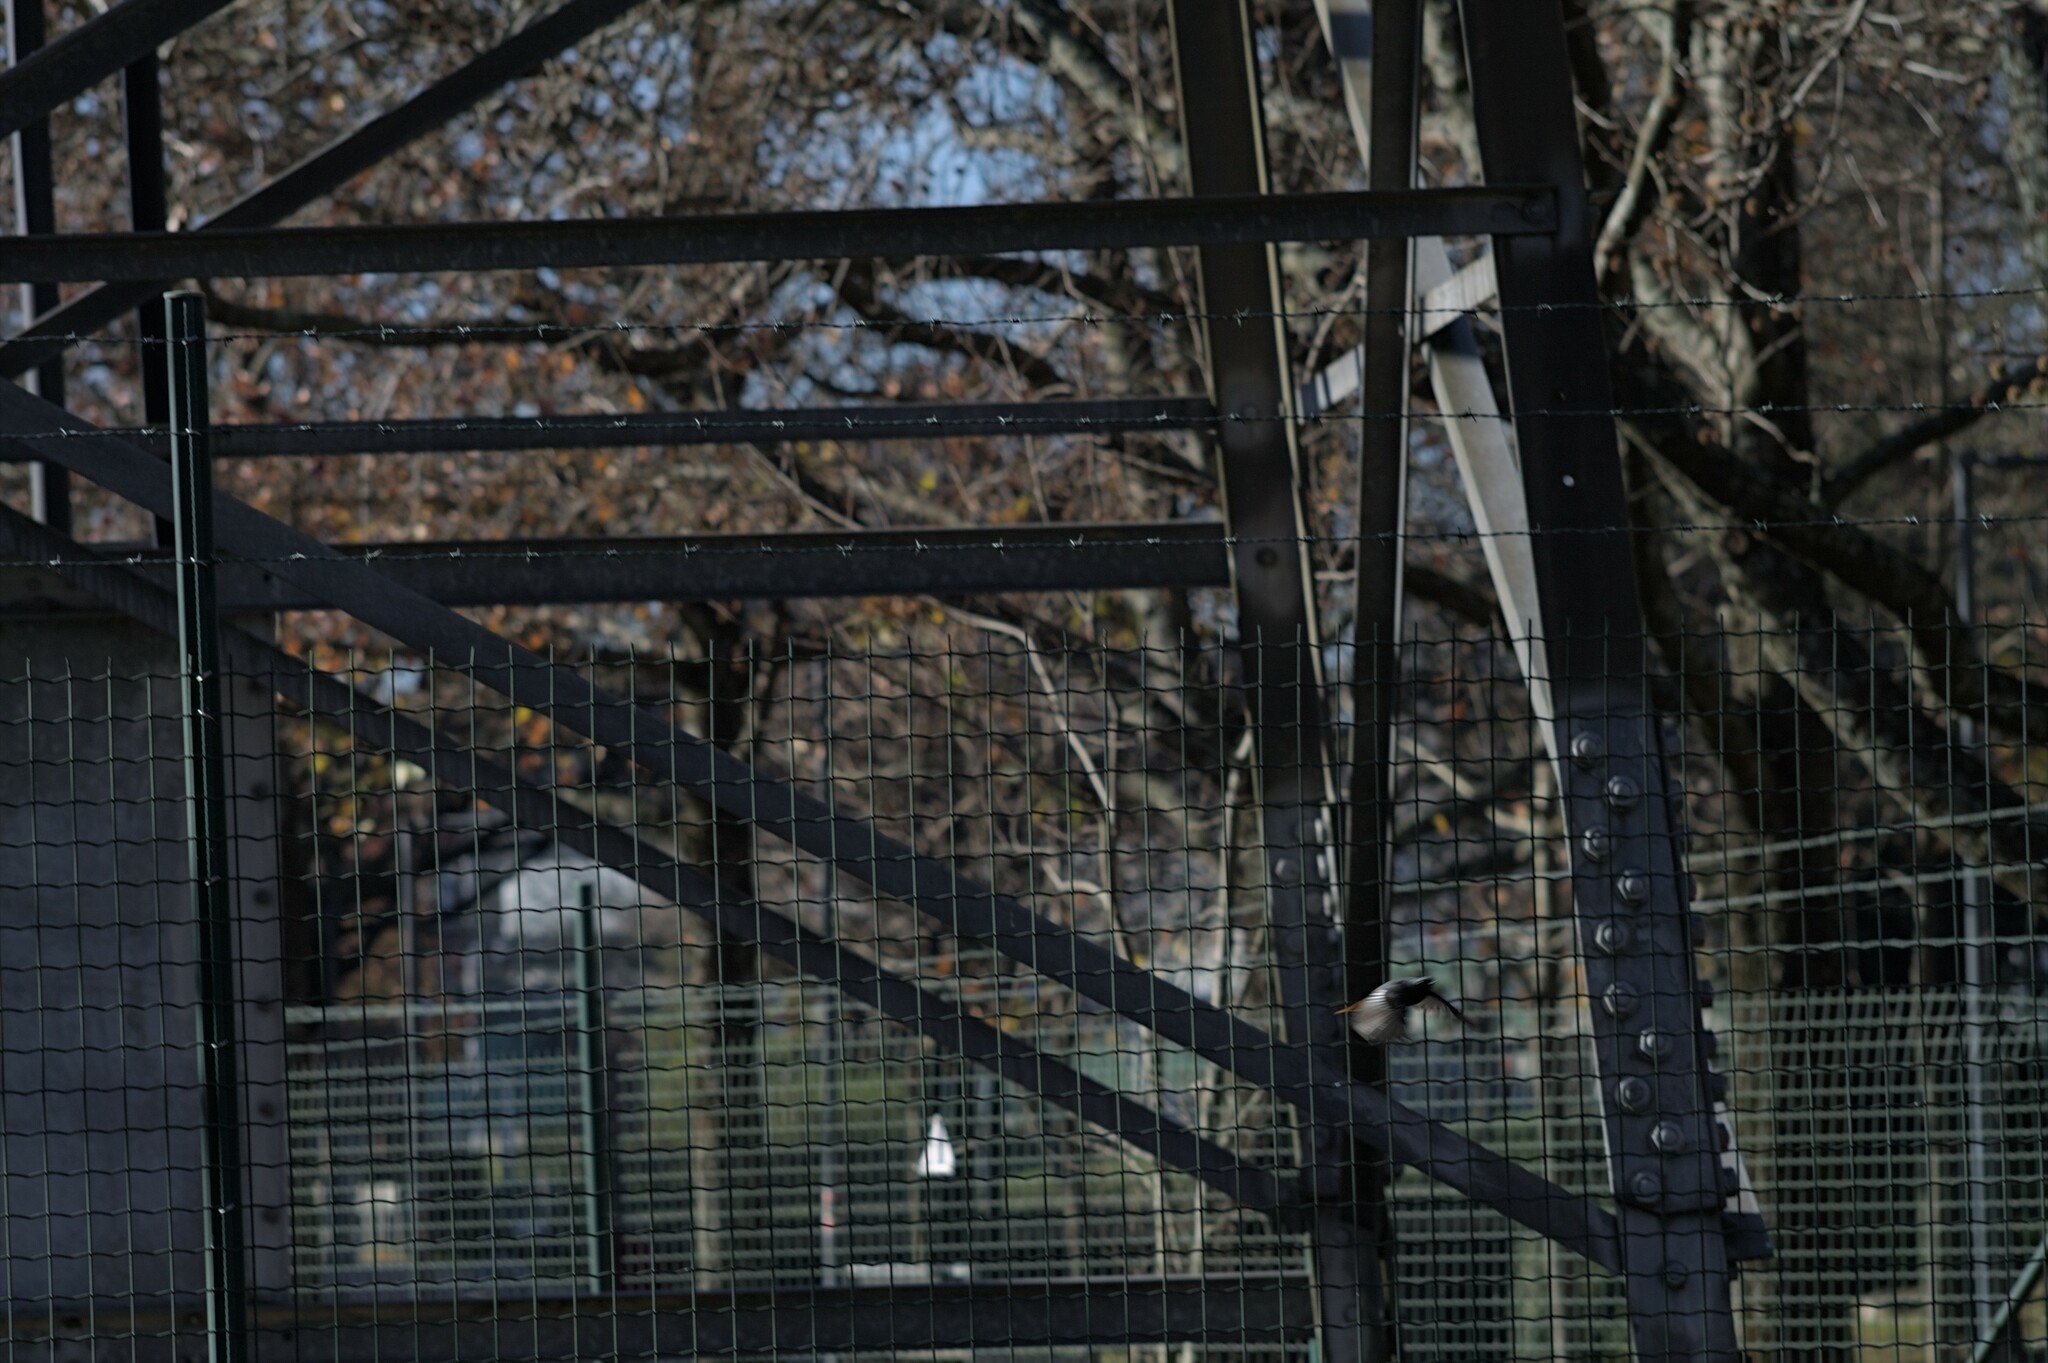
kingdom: Animalia
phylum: Chordata
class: Aves
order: Passeriformes
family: Muscicapidae
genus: Phoenicurus
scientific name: Phoenicurus ochruros
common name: Black redstart
